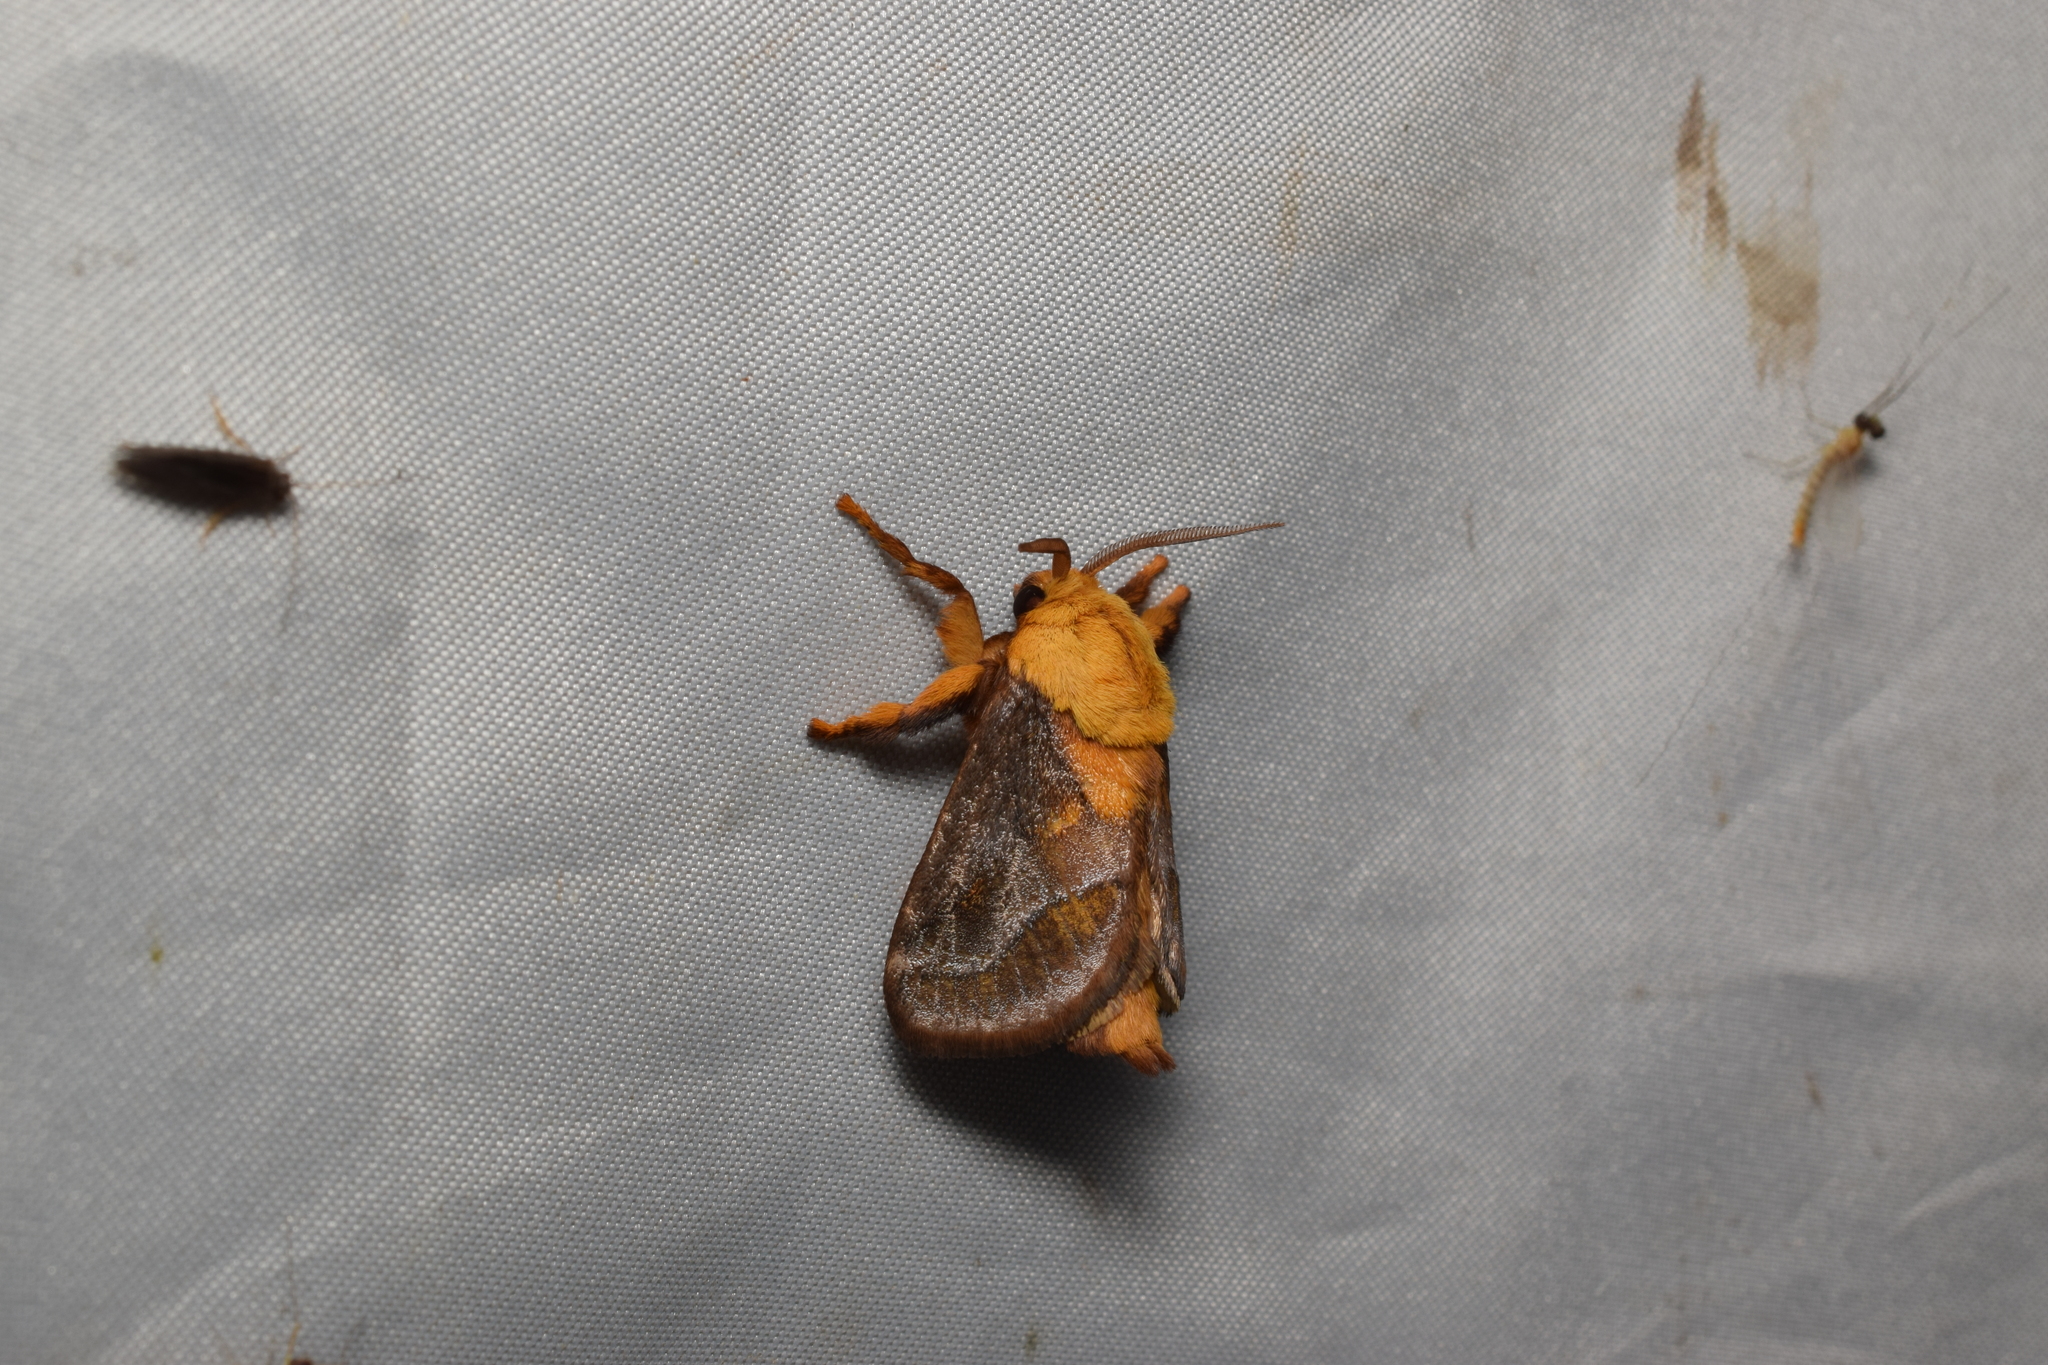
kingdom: Animalia
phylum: Arthropoda
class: Insecta
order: Lepidoptera
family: Limacodidae
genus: Narosoideus
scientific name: Narosoideus flavidorsalis
